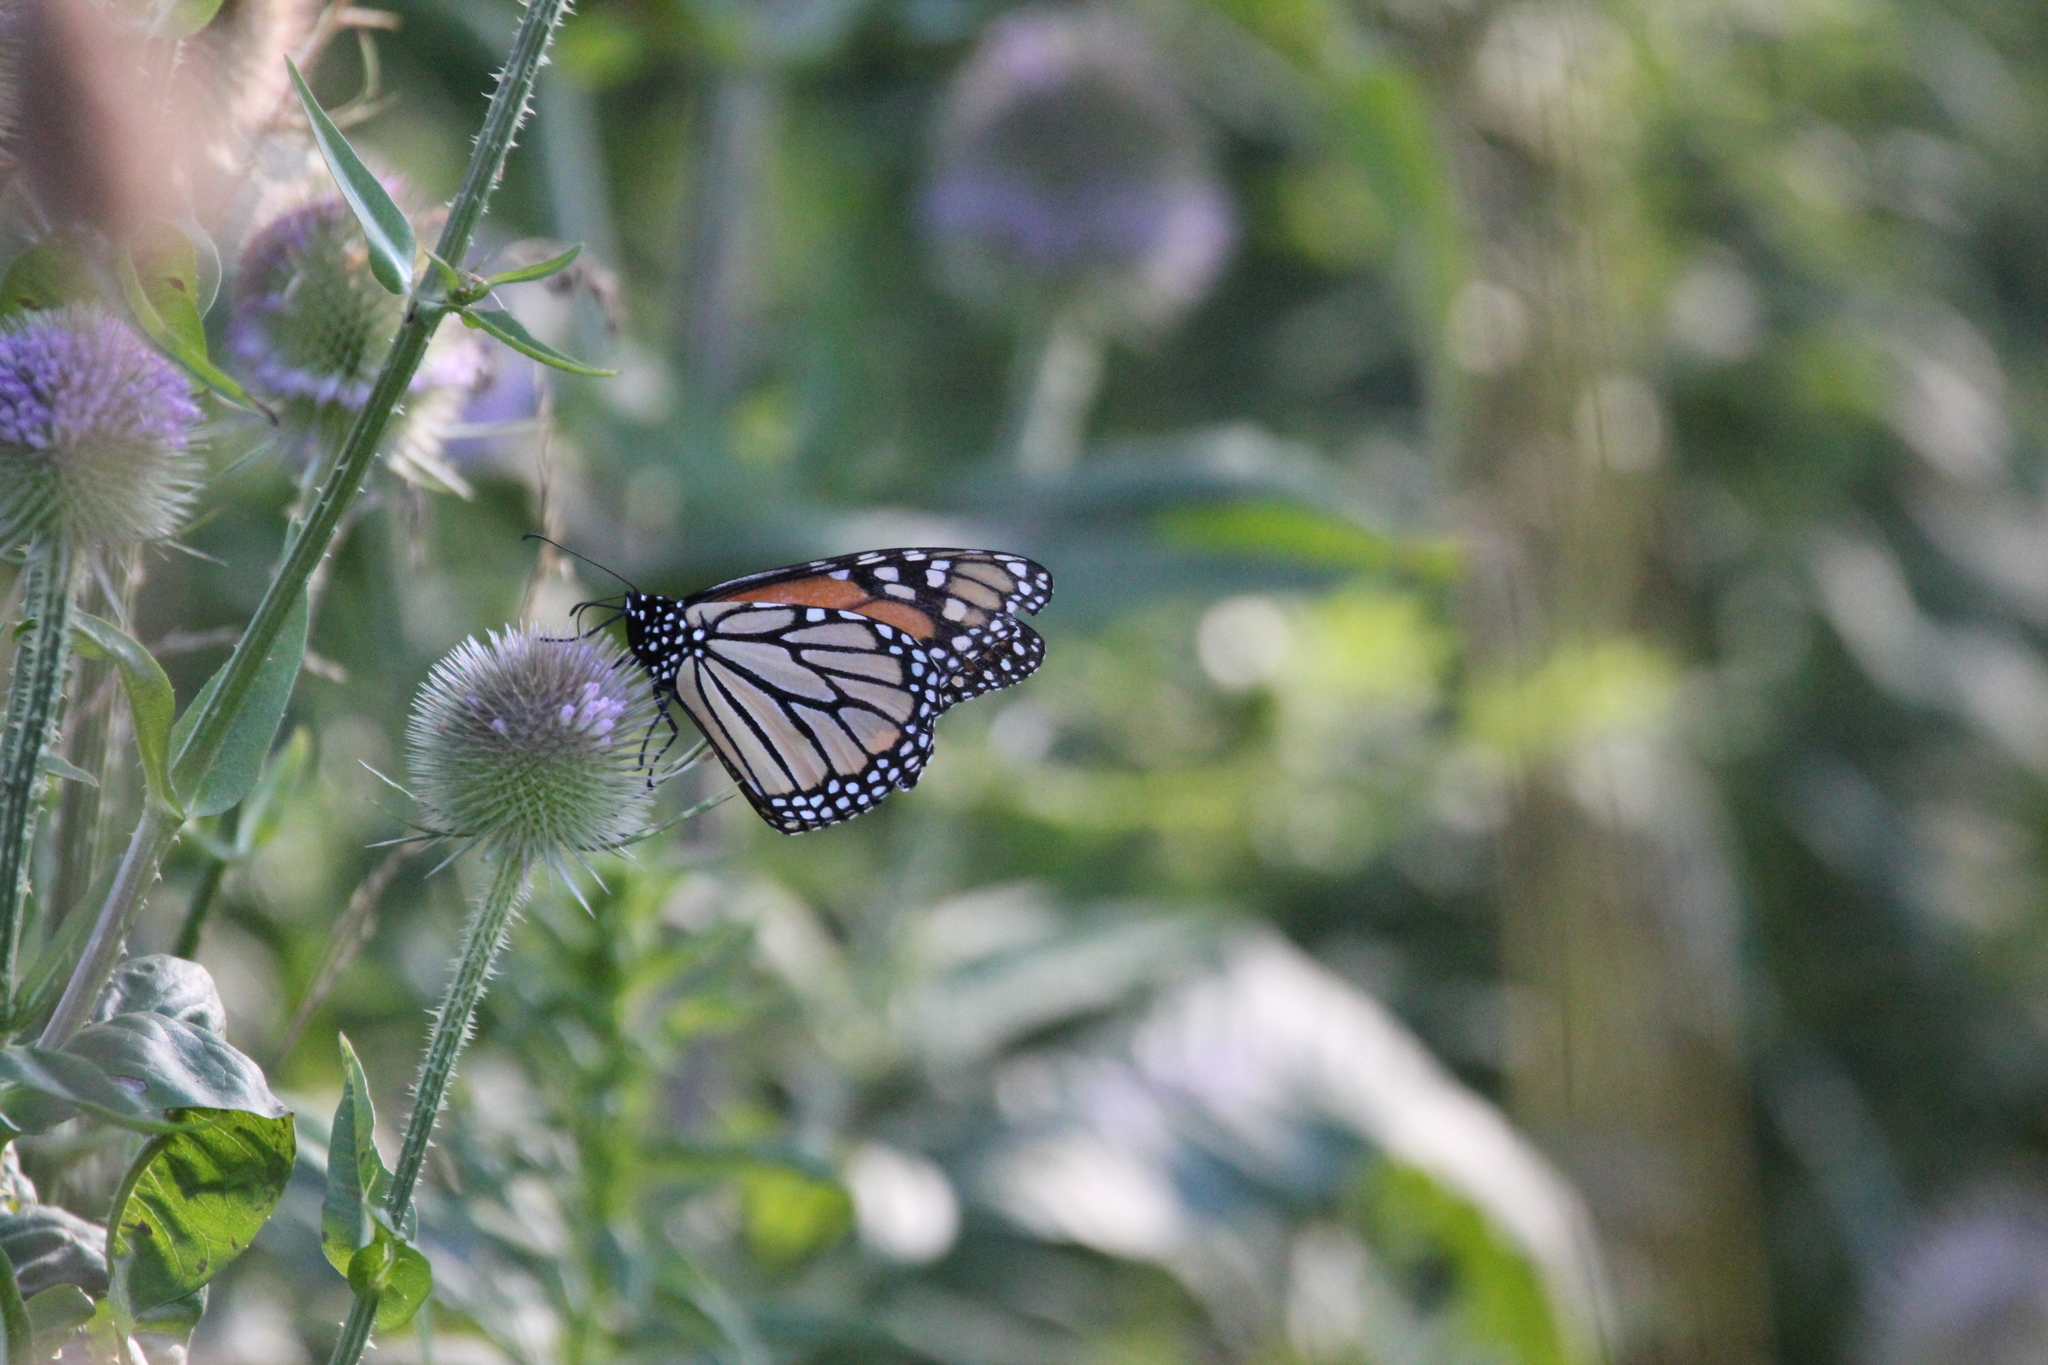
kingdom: Animalia
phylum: Arthropoda
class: Insecta
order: Lepidoptera
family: Nymphalidae
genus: Danaus
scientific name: Danaus plexippus
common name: Monarch
